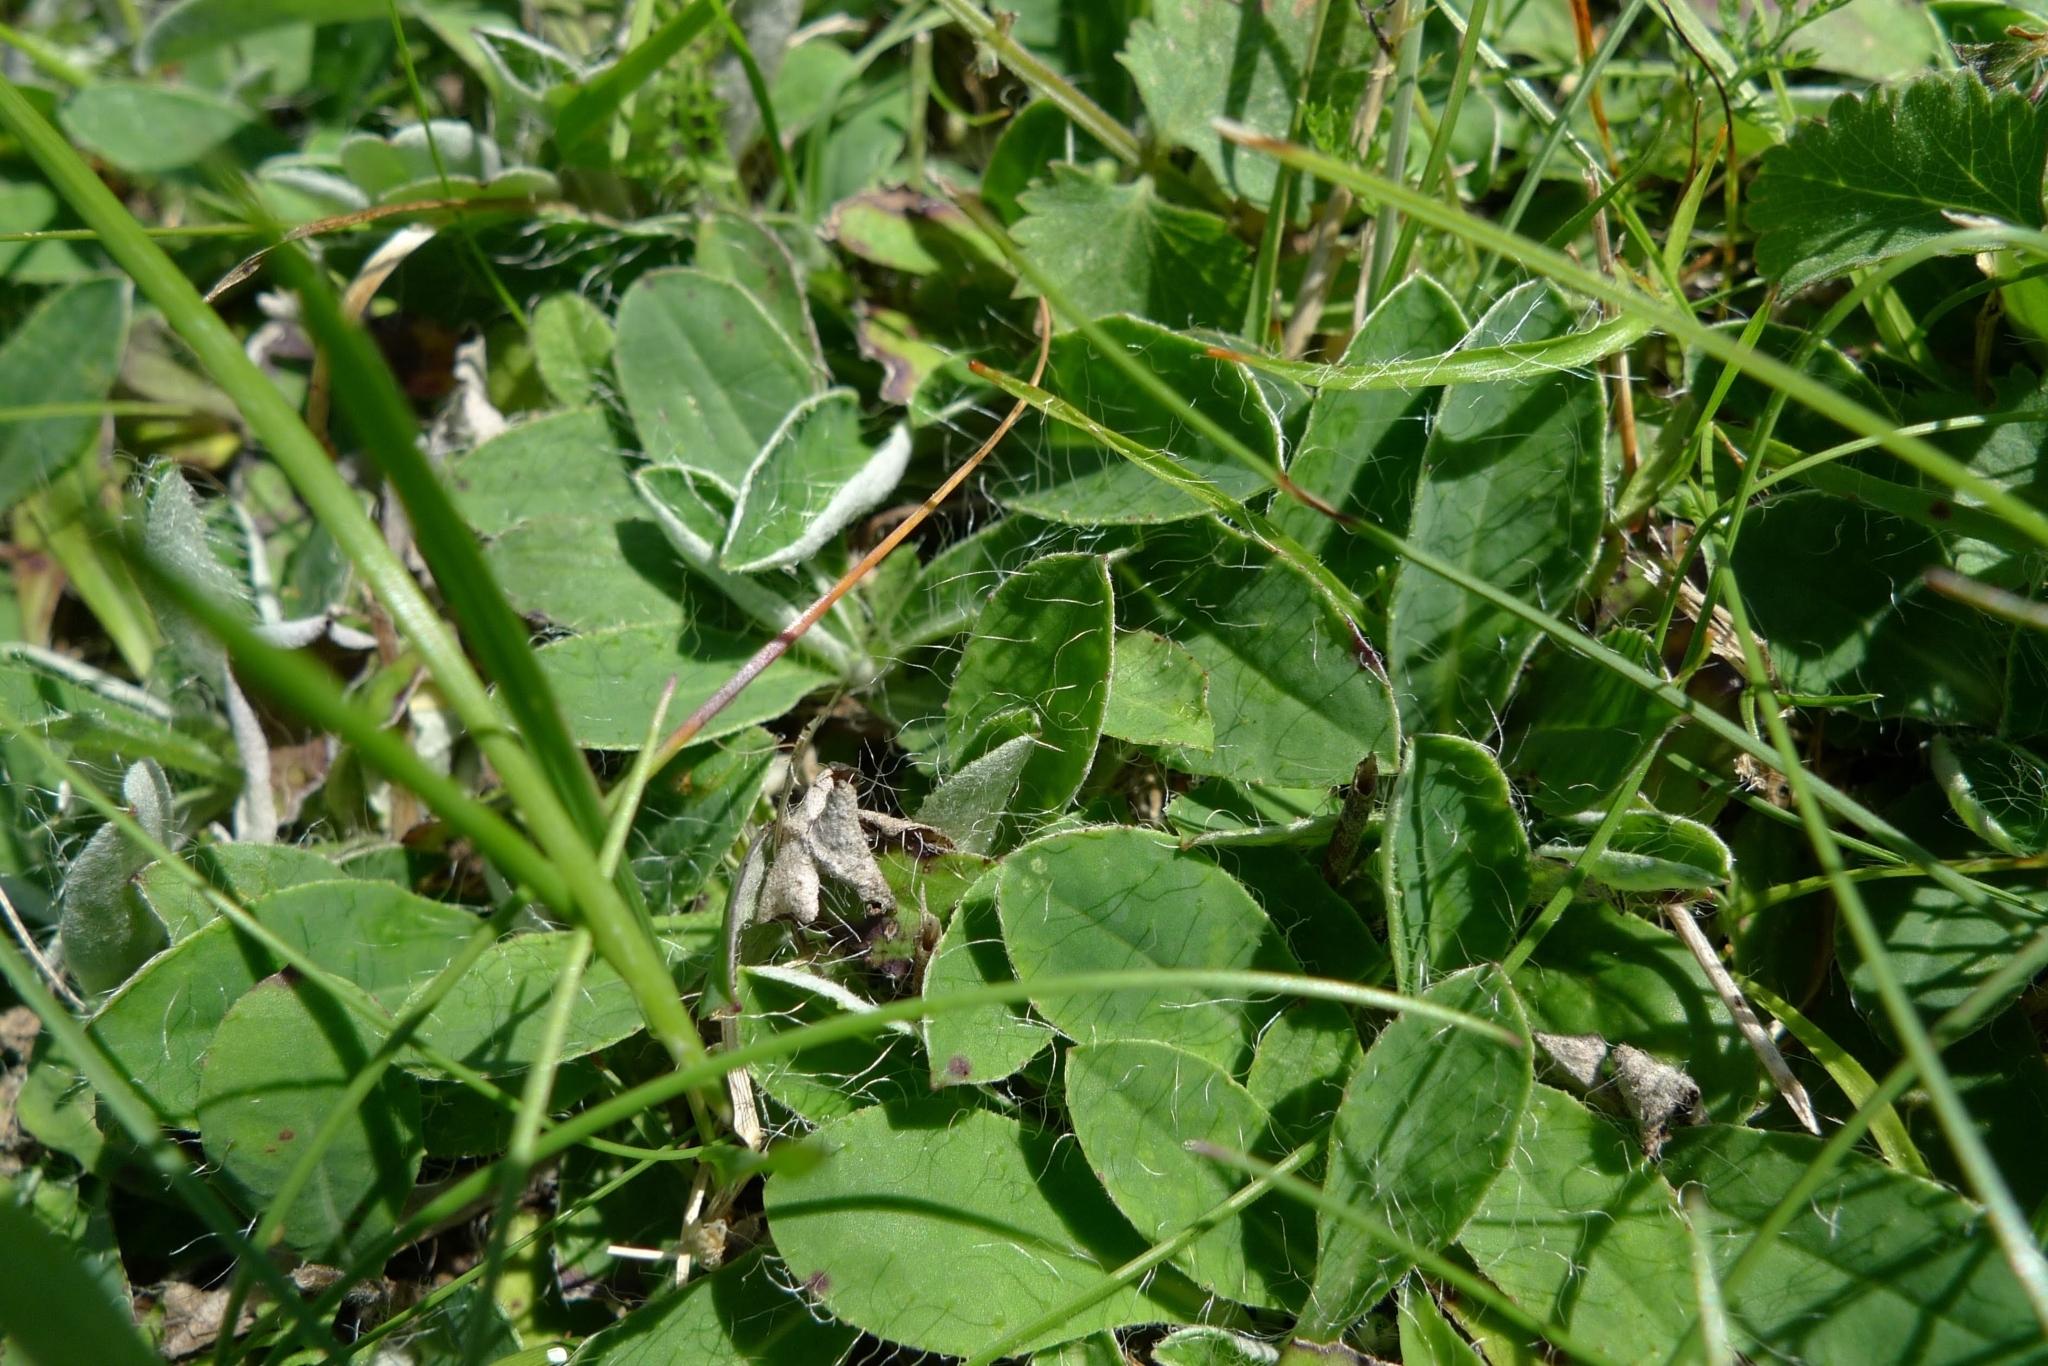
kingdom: Plantae
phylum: Tracheophyta
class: Magnoliopsida
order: Asterales
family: Asteraceae
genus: Pilosella
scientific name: Pilosella officinarum
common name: Mouse-ear hawkweed
